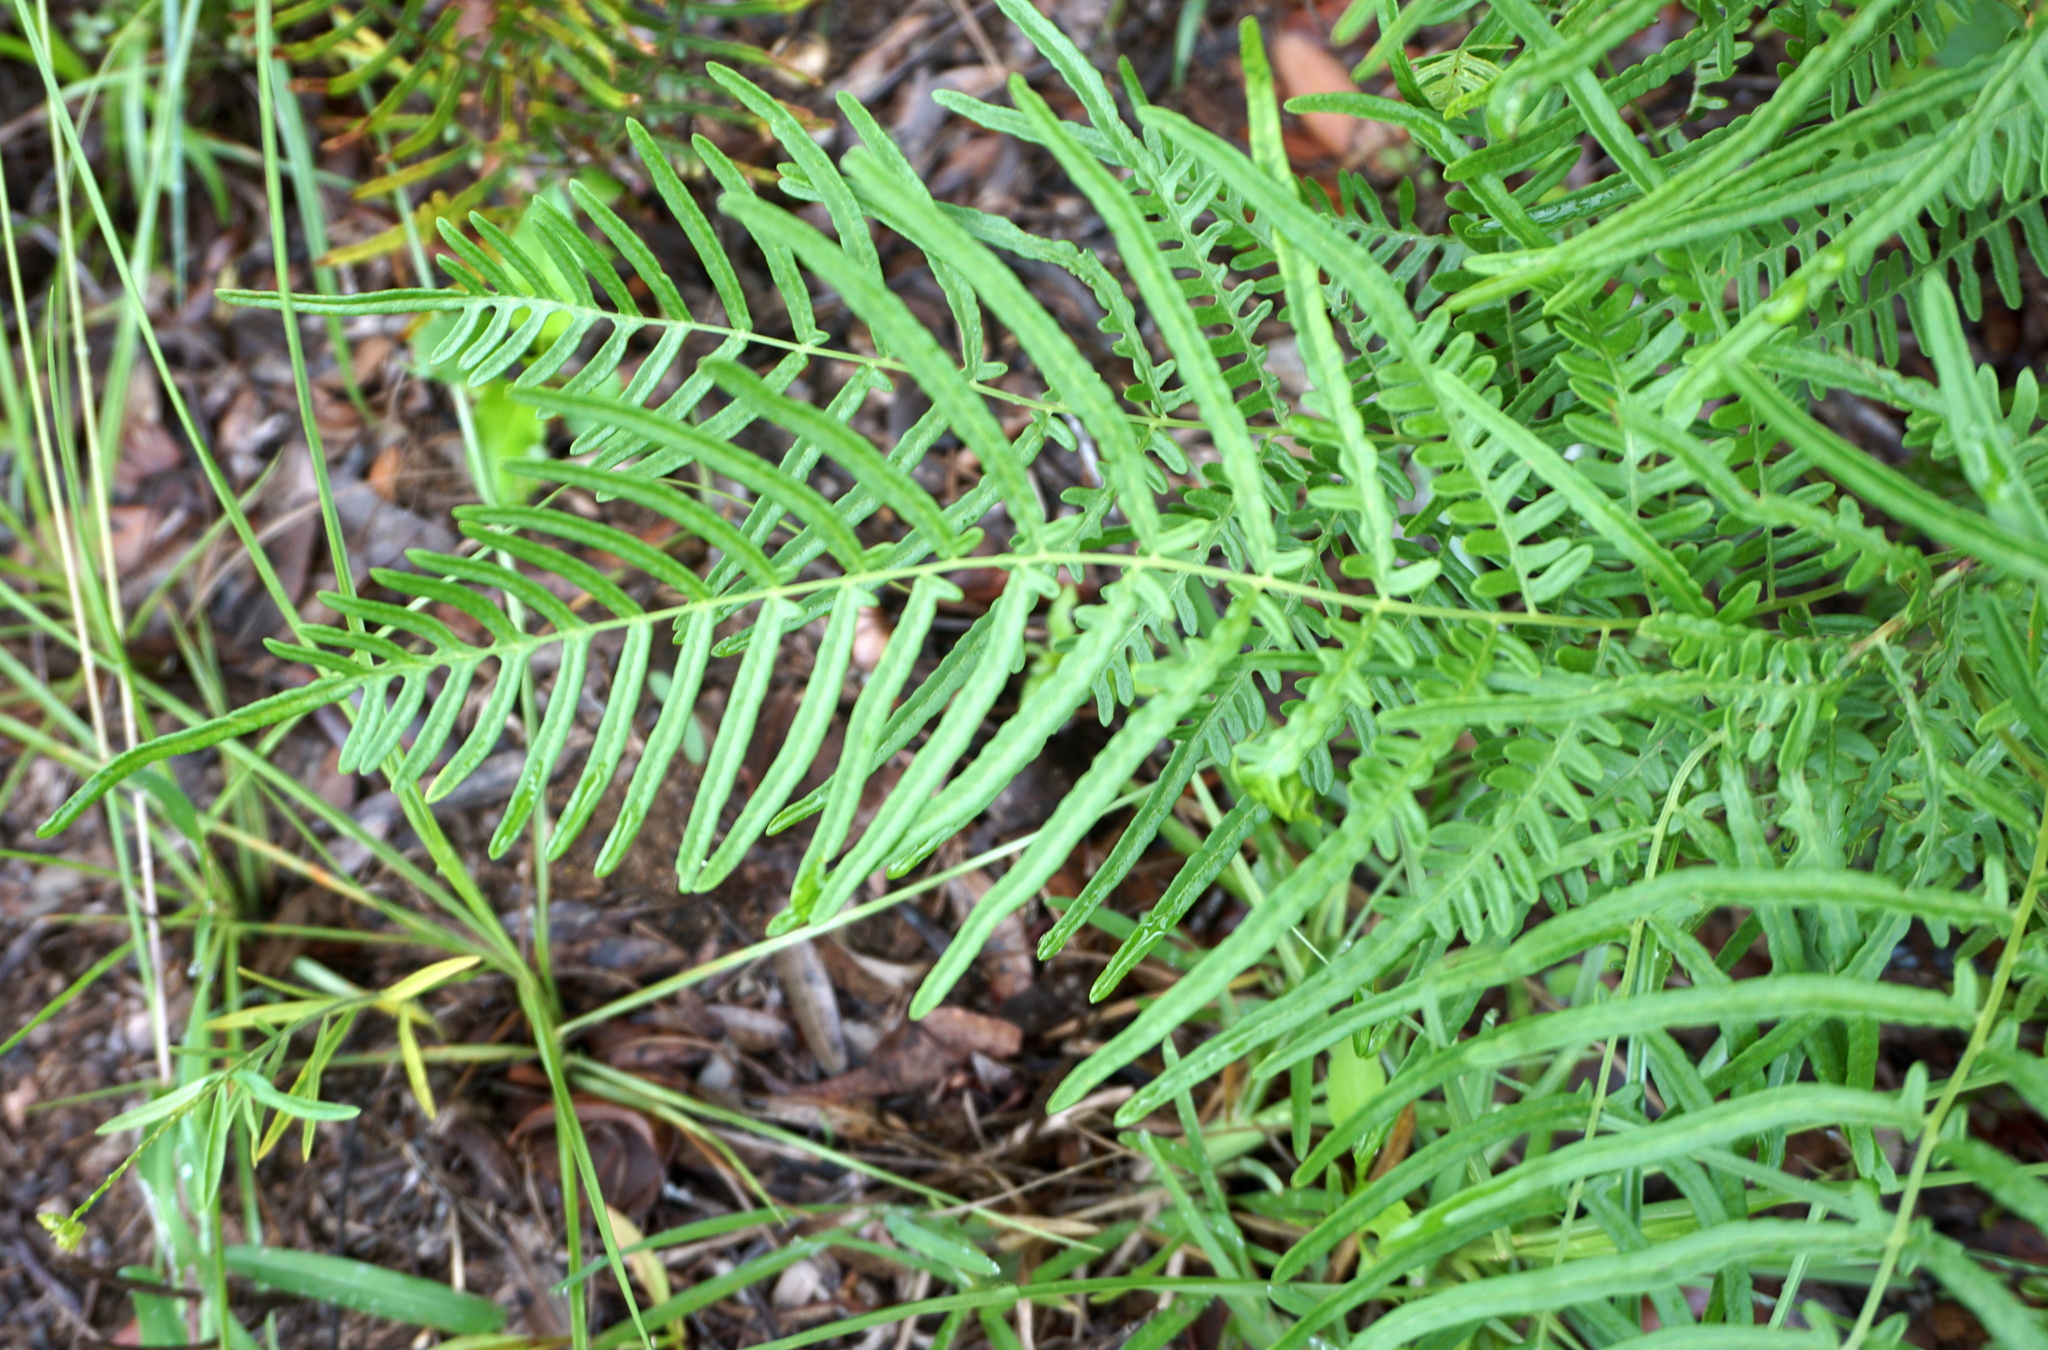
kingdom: Plantae
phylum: Tracheophyta
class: Polypodiopsida
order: Polypodiales
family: Dennstaedtiaceae
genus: Pteridium
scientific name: Pteridium
